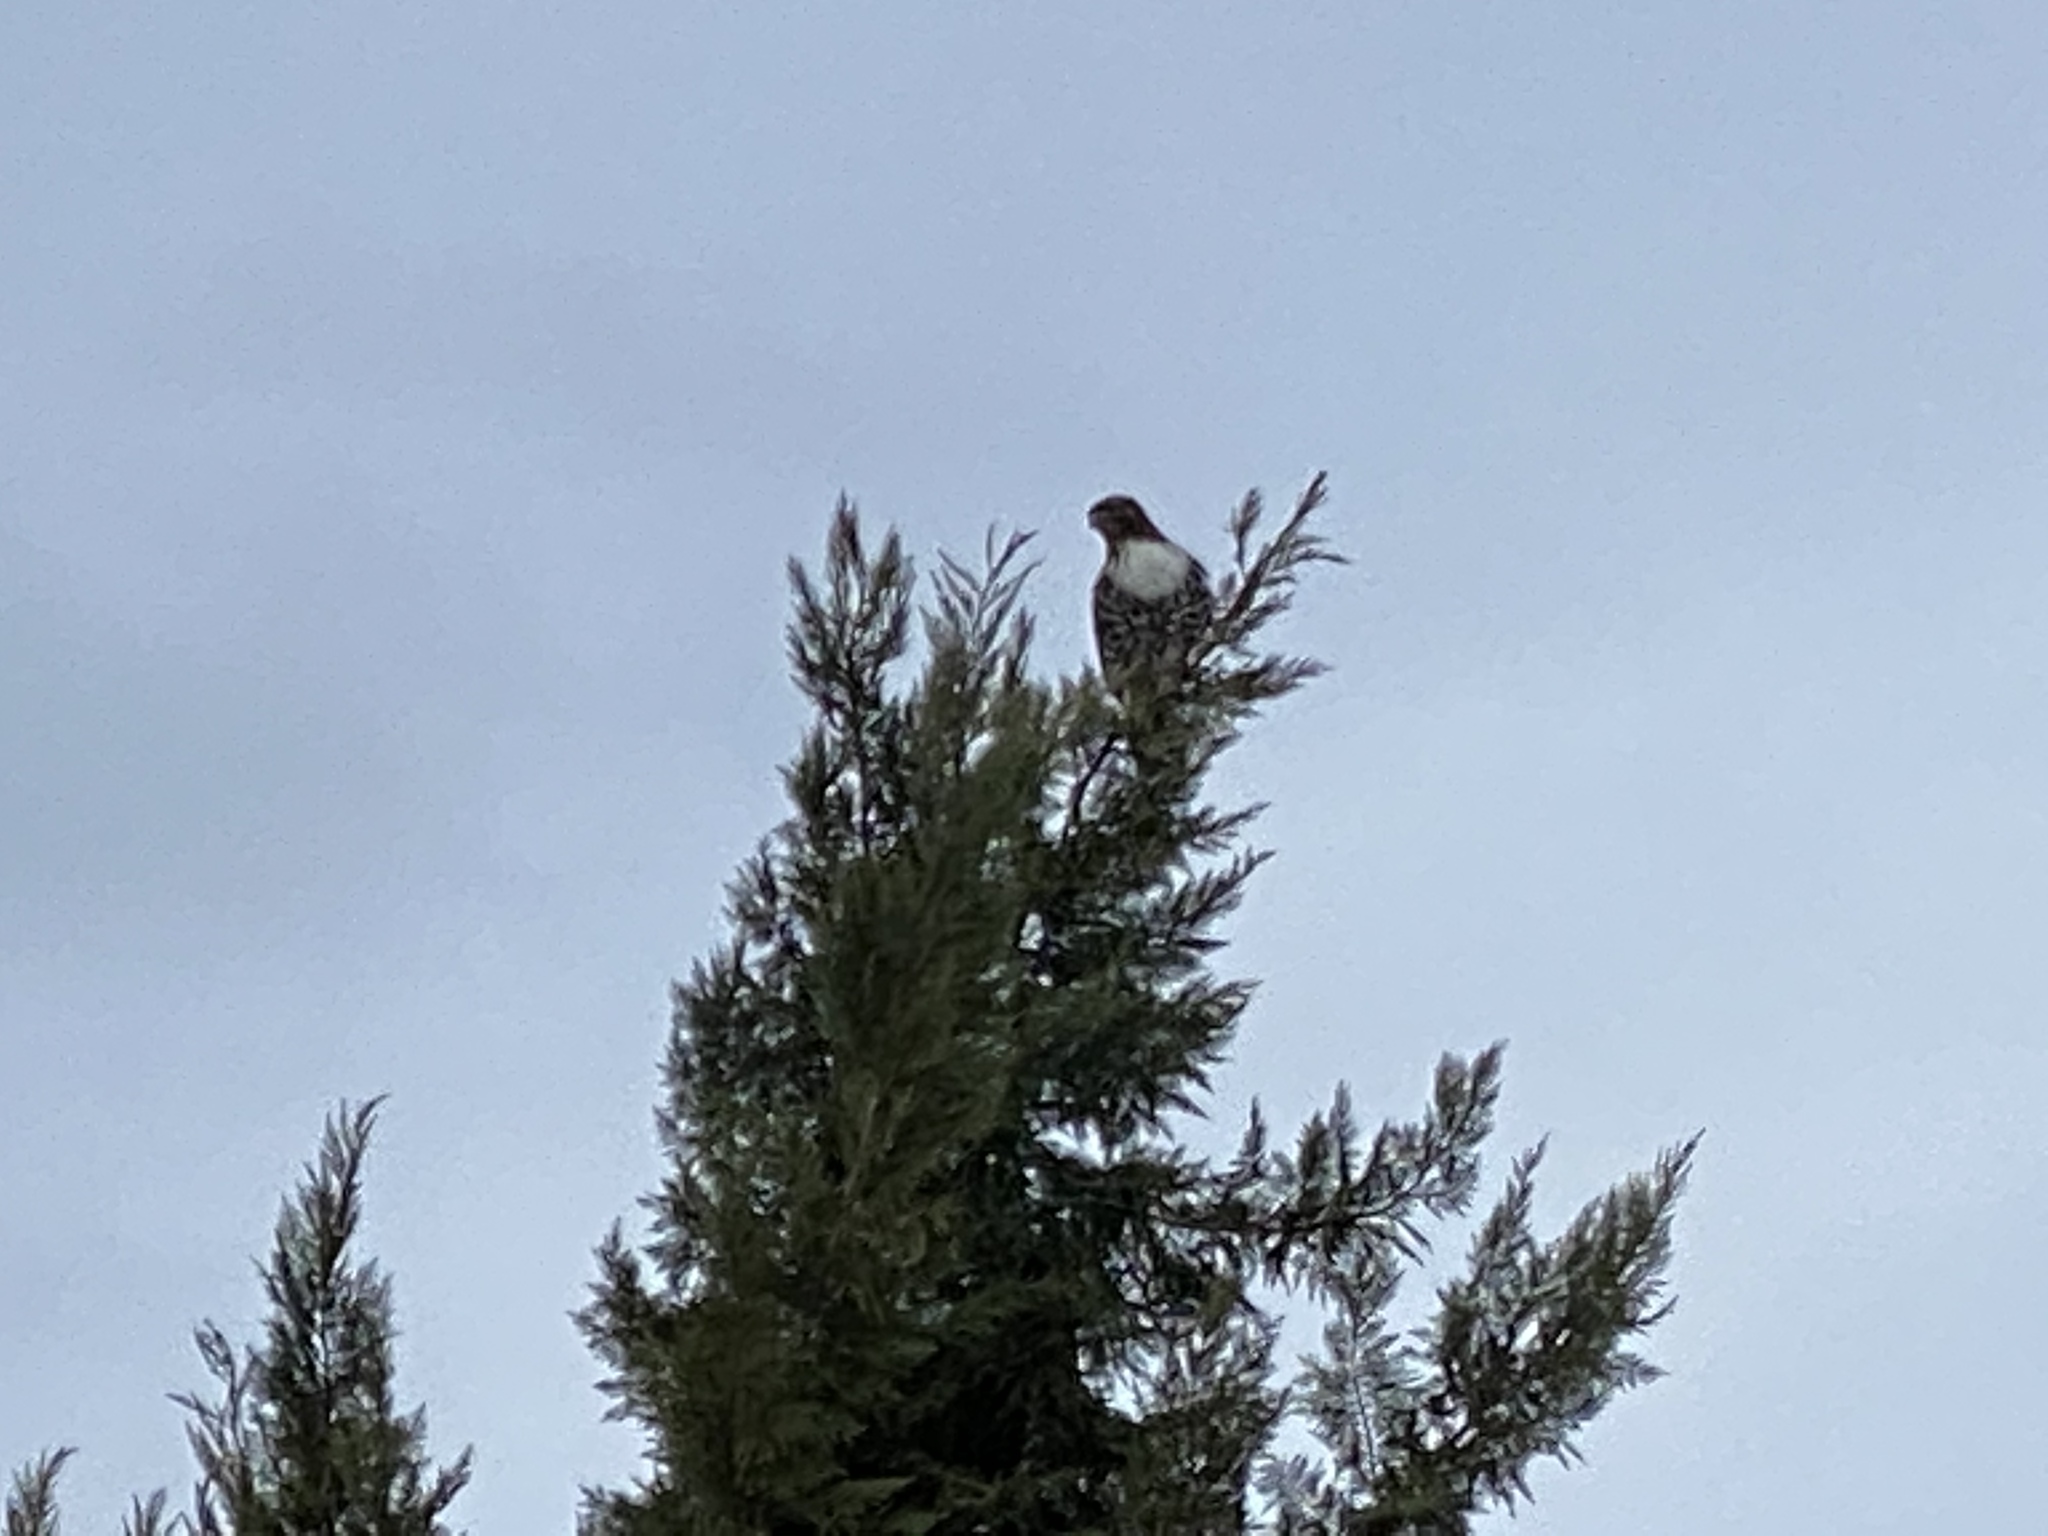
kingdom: Animalia
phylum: Chordata
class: Aves
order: Accipitriformes
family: Accipitridae
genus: Buteo
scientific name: Buteo jamaicensis
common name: Red-tailed hawk
